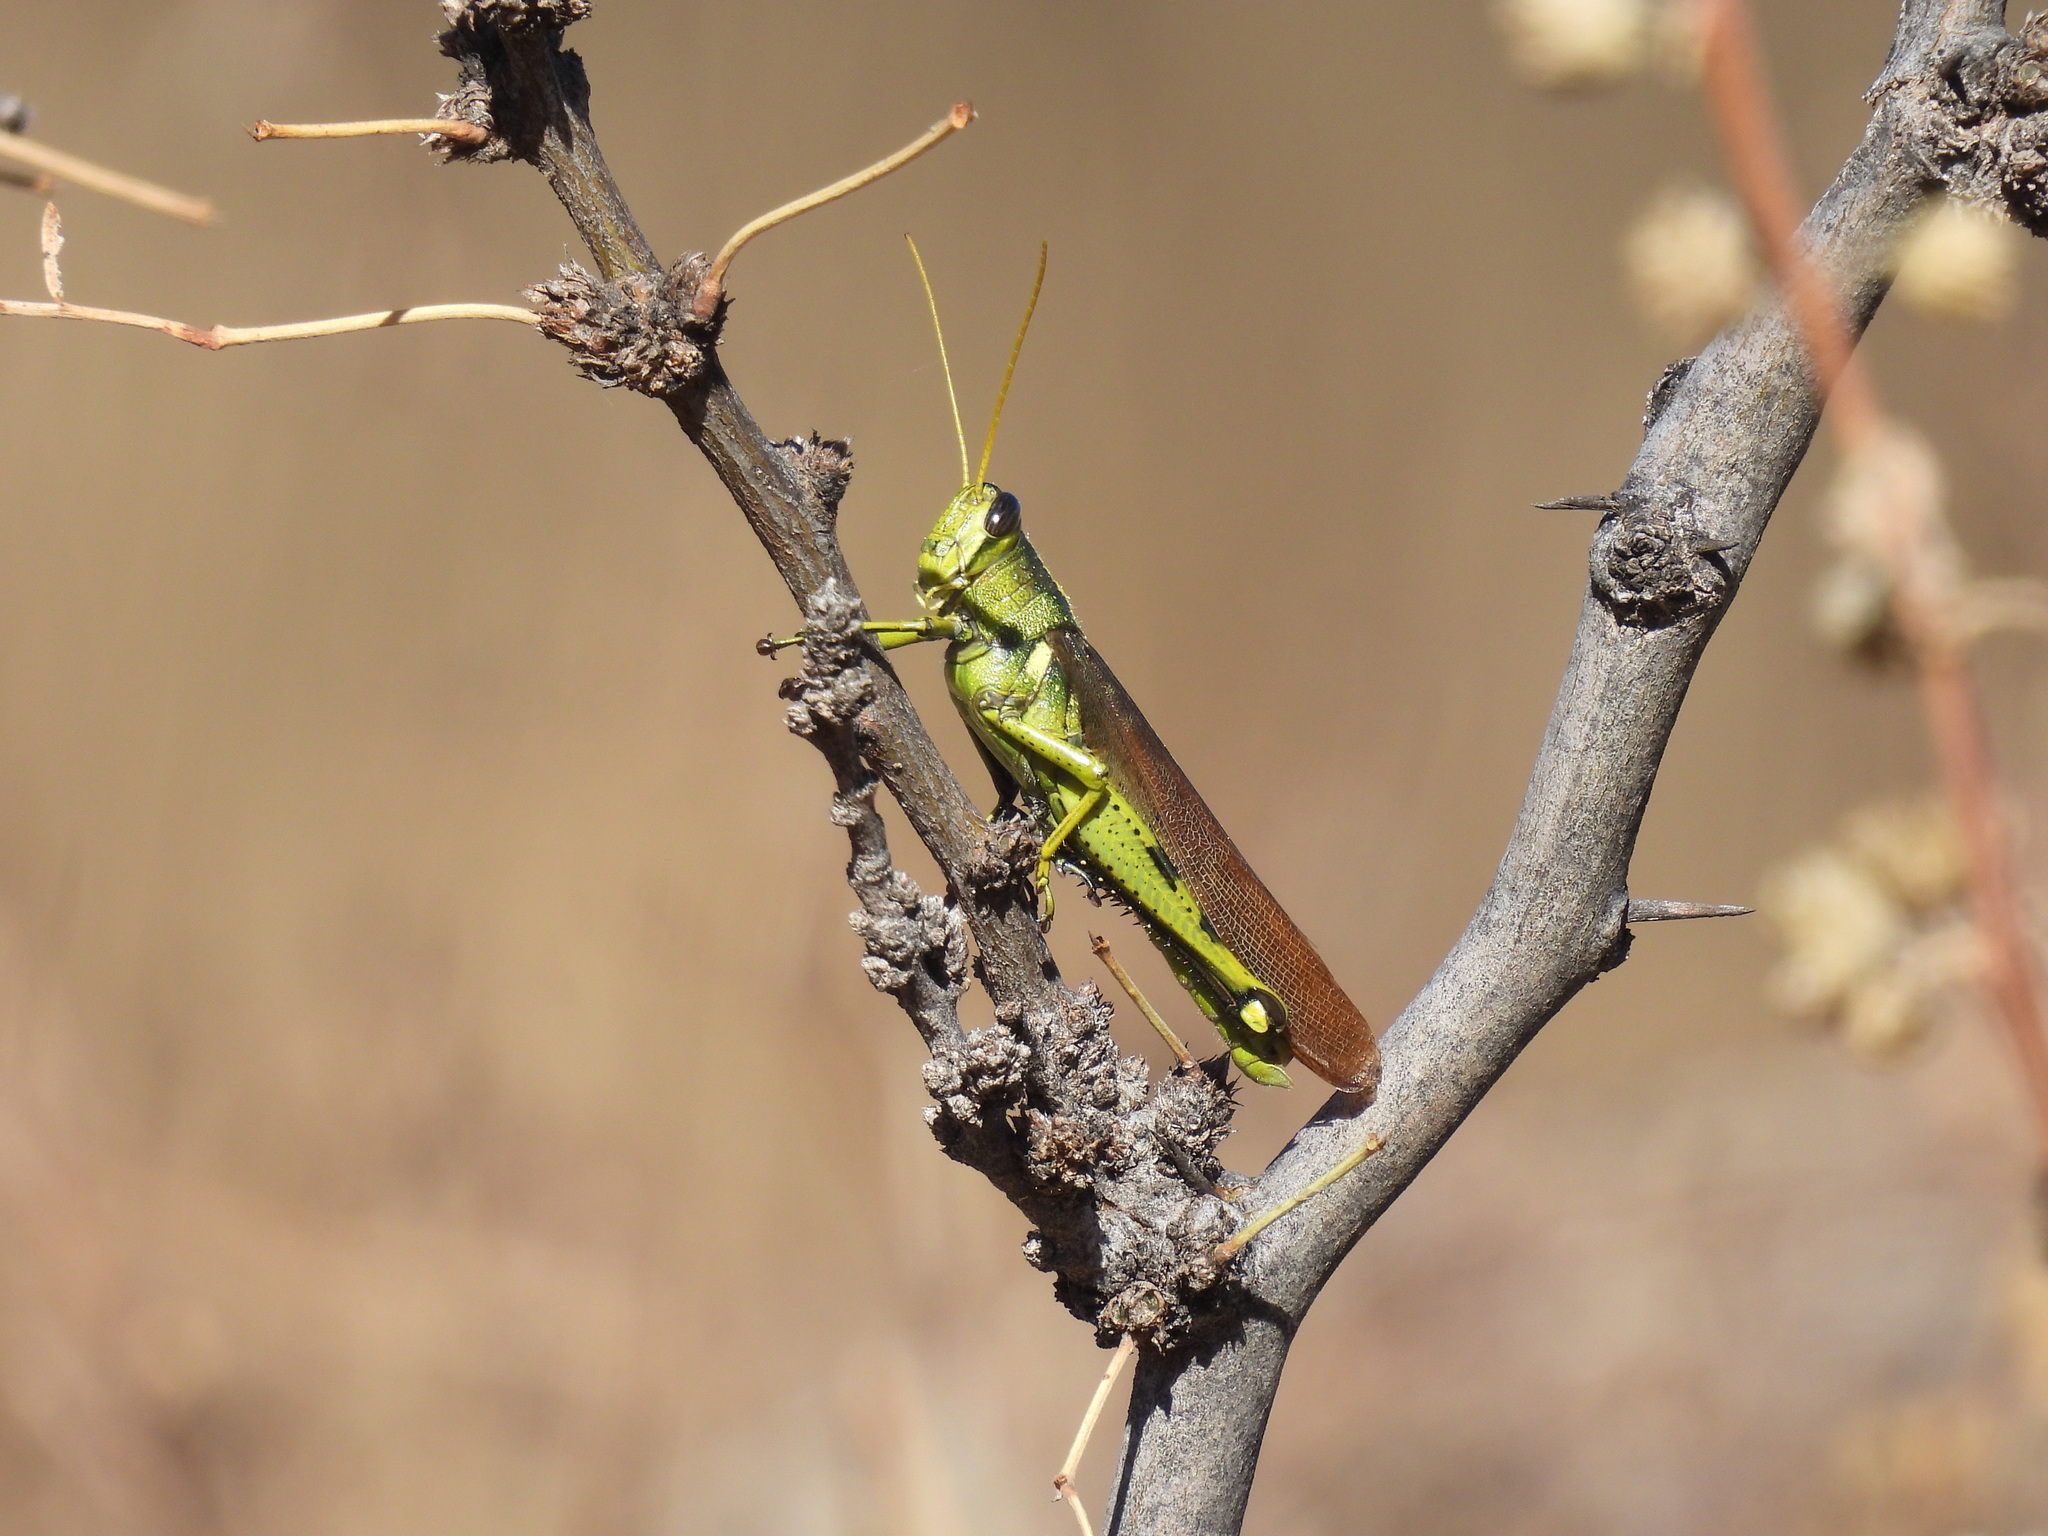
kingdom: Animalia
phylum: Arthropoda
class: Insecta
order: Orthoptera
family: Acrididae
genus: Schistocerca
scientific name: Schistocerca obscura
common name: Obscure bird grasshopper
